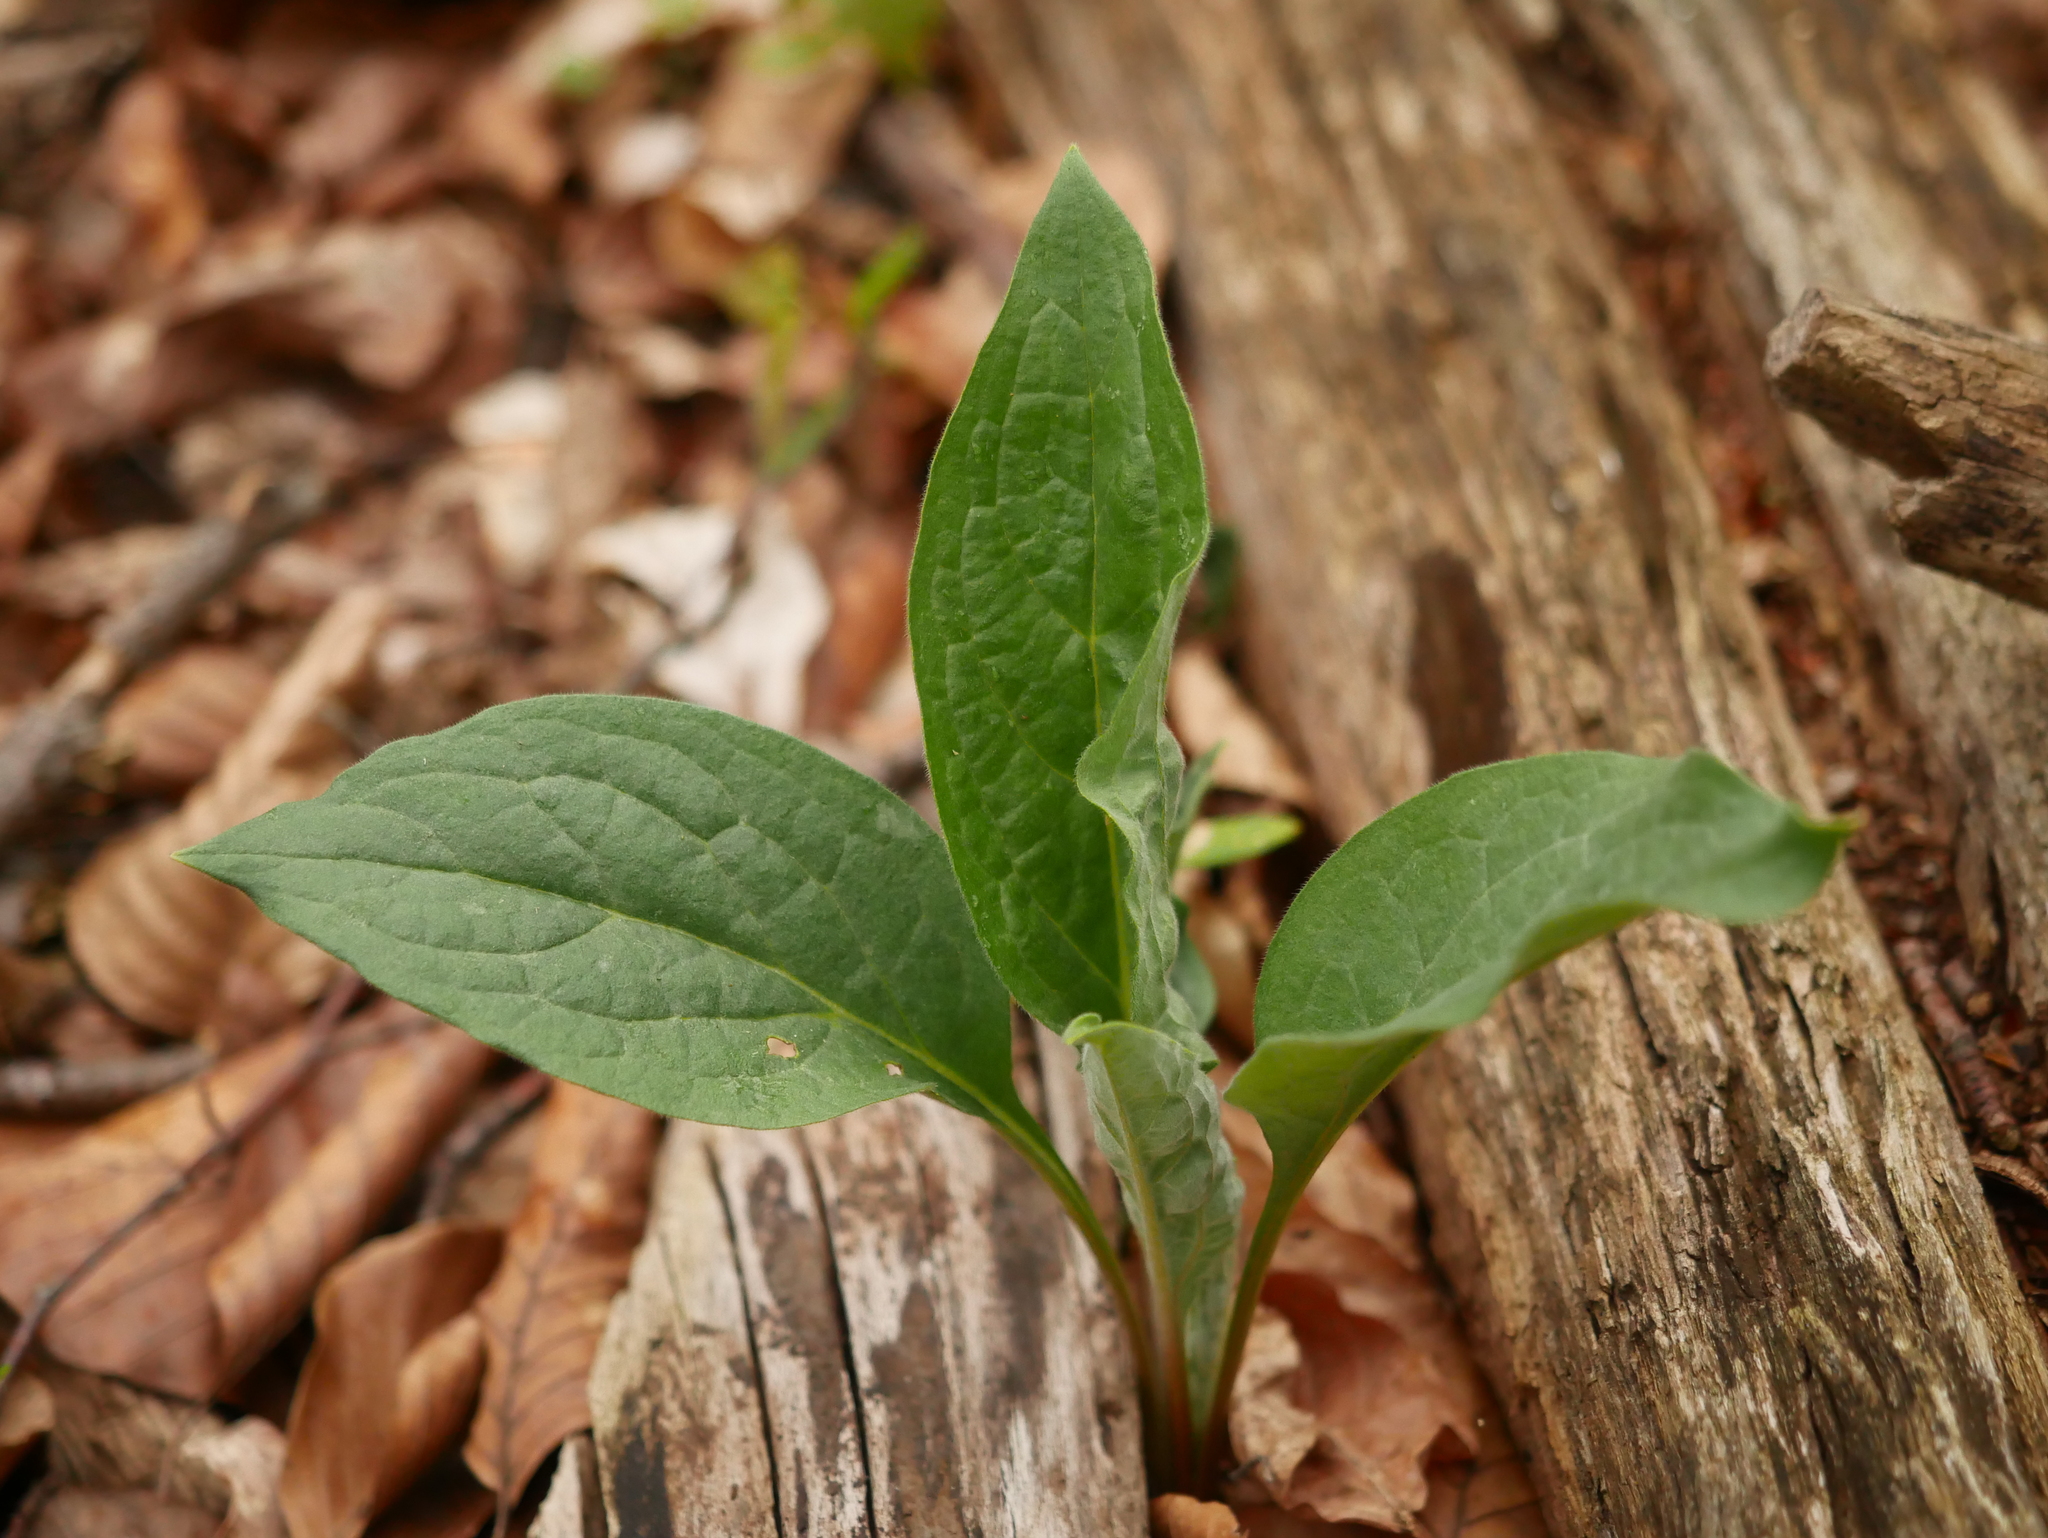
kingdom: Plantae
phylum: Tracheophyta
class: Magnoliopsida
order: Boraginales
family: Boraginaceae
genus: Cynoglossum
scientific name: Cynoglossum officinale
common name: Hound's-tongue
